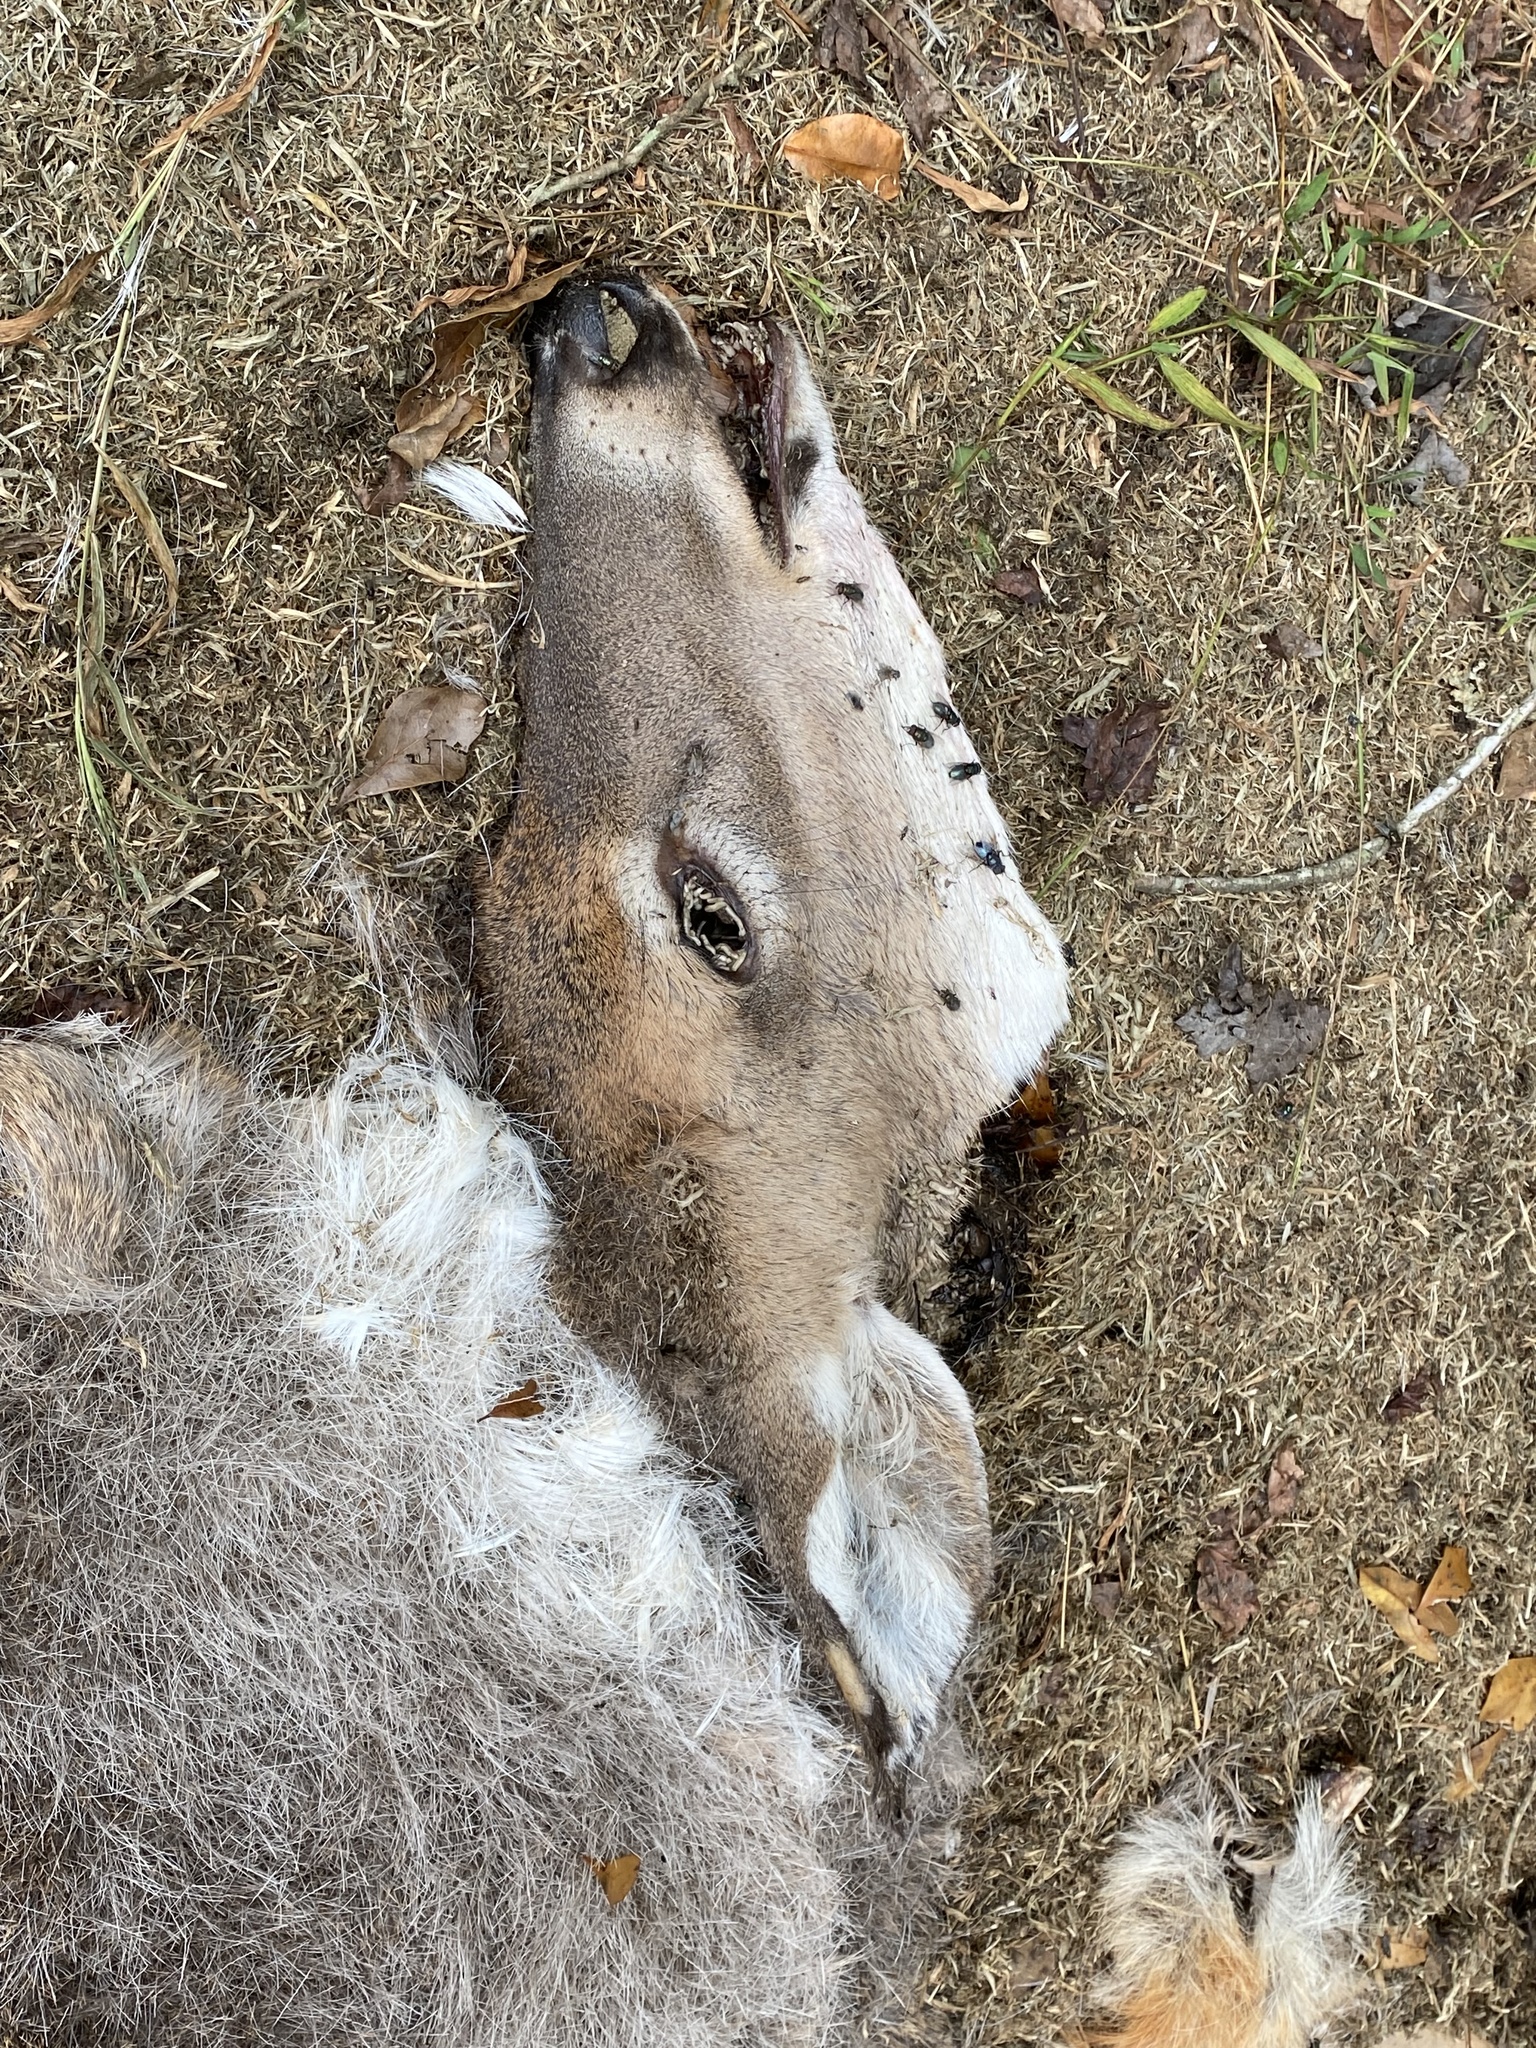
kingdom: Animalia
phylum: Chordata
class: Mammalia
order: Artiodactyla
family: Cervidae
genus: Odocoileus
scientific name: Odocoileus virginianus
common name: White-tailed deer
